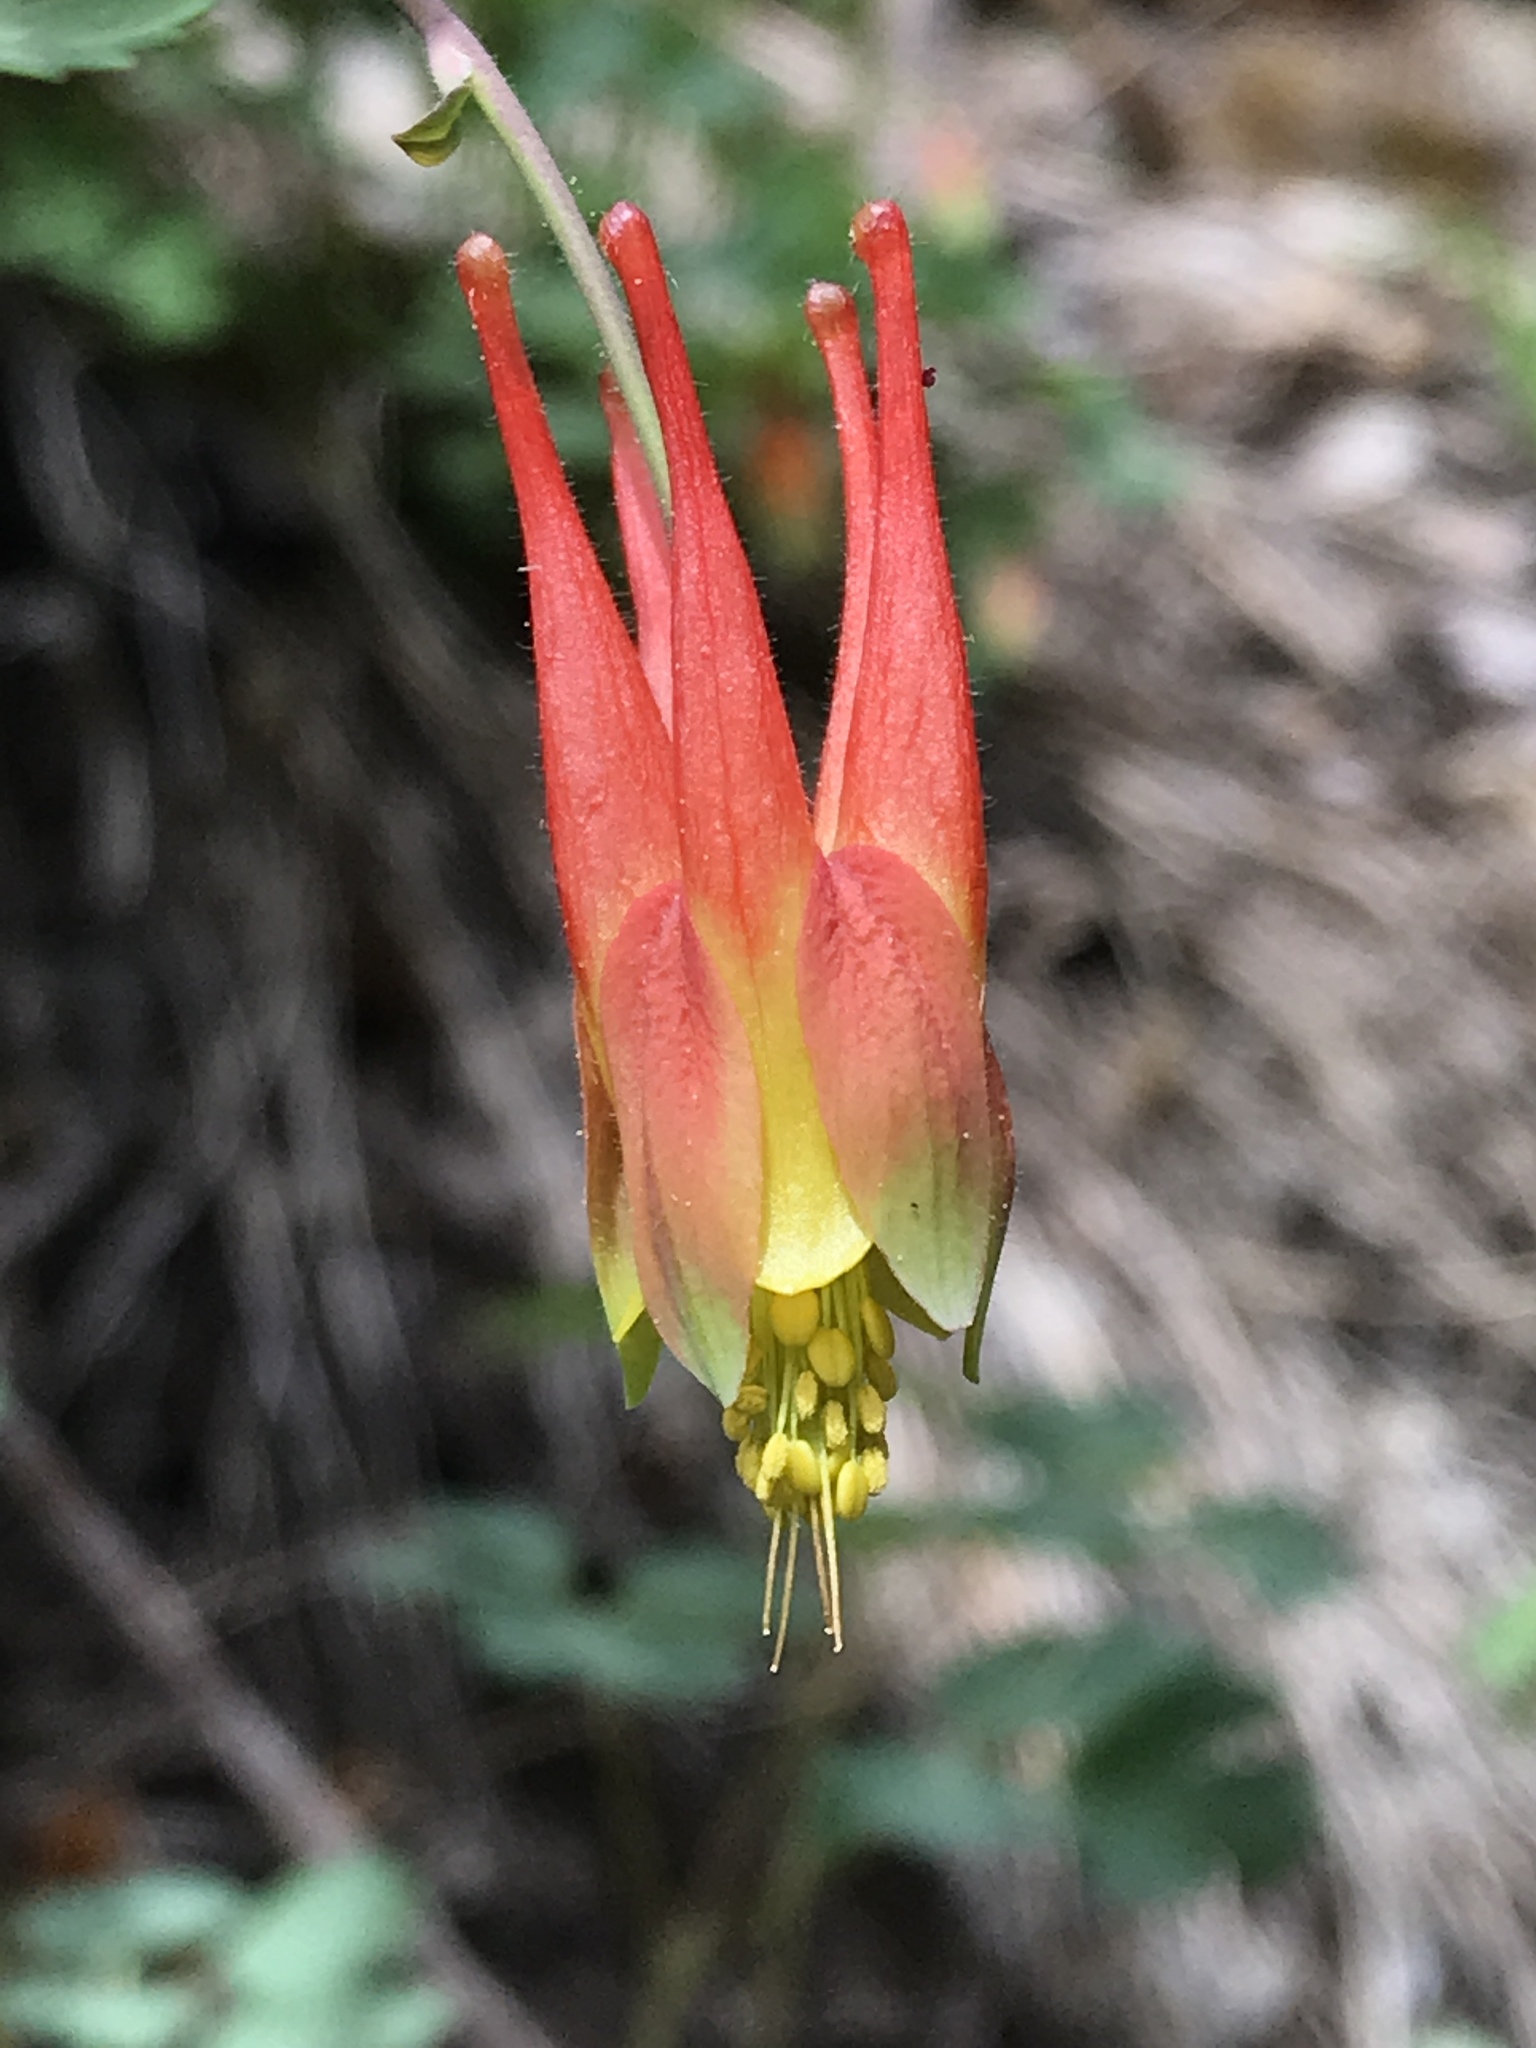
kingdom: Plantae
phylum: Tracheophyta
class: Magnoliopsida
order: Ranunculales
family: Ranunculaceae
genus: Aquilegia
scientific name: Aquilegia elegantula
